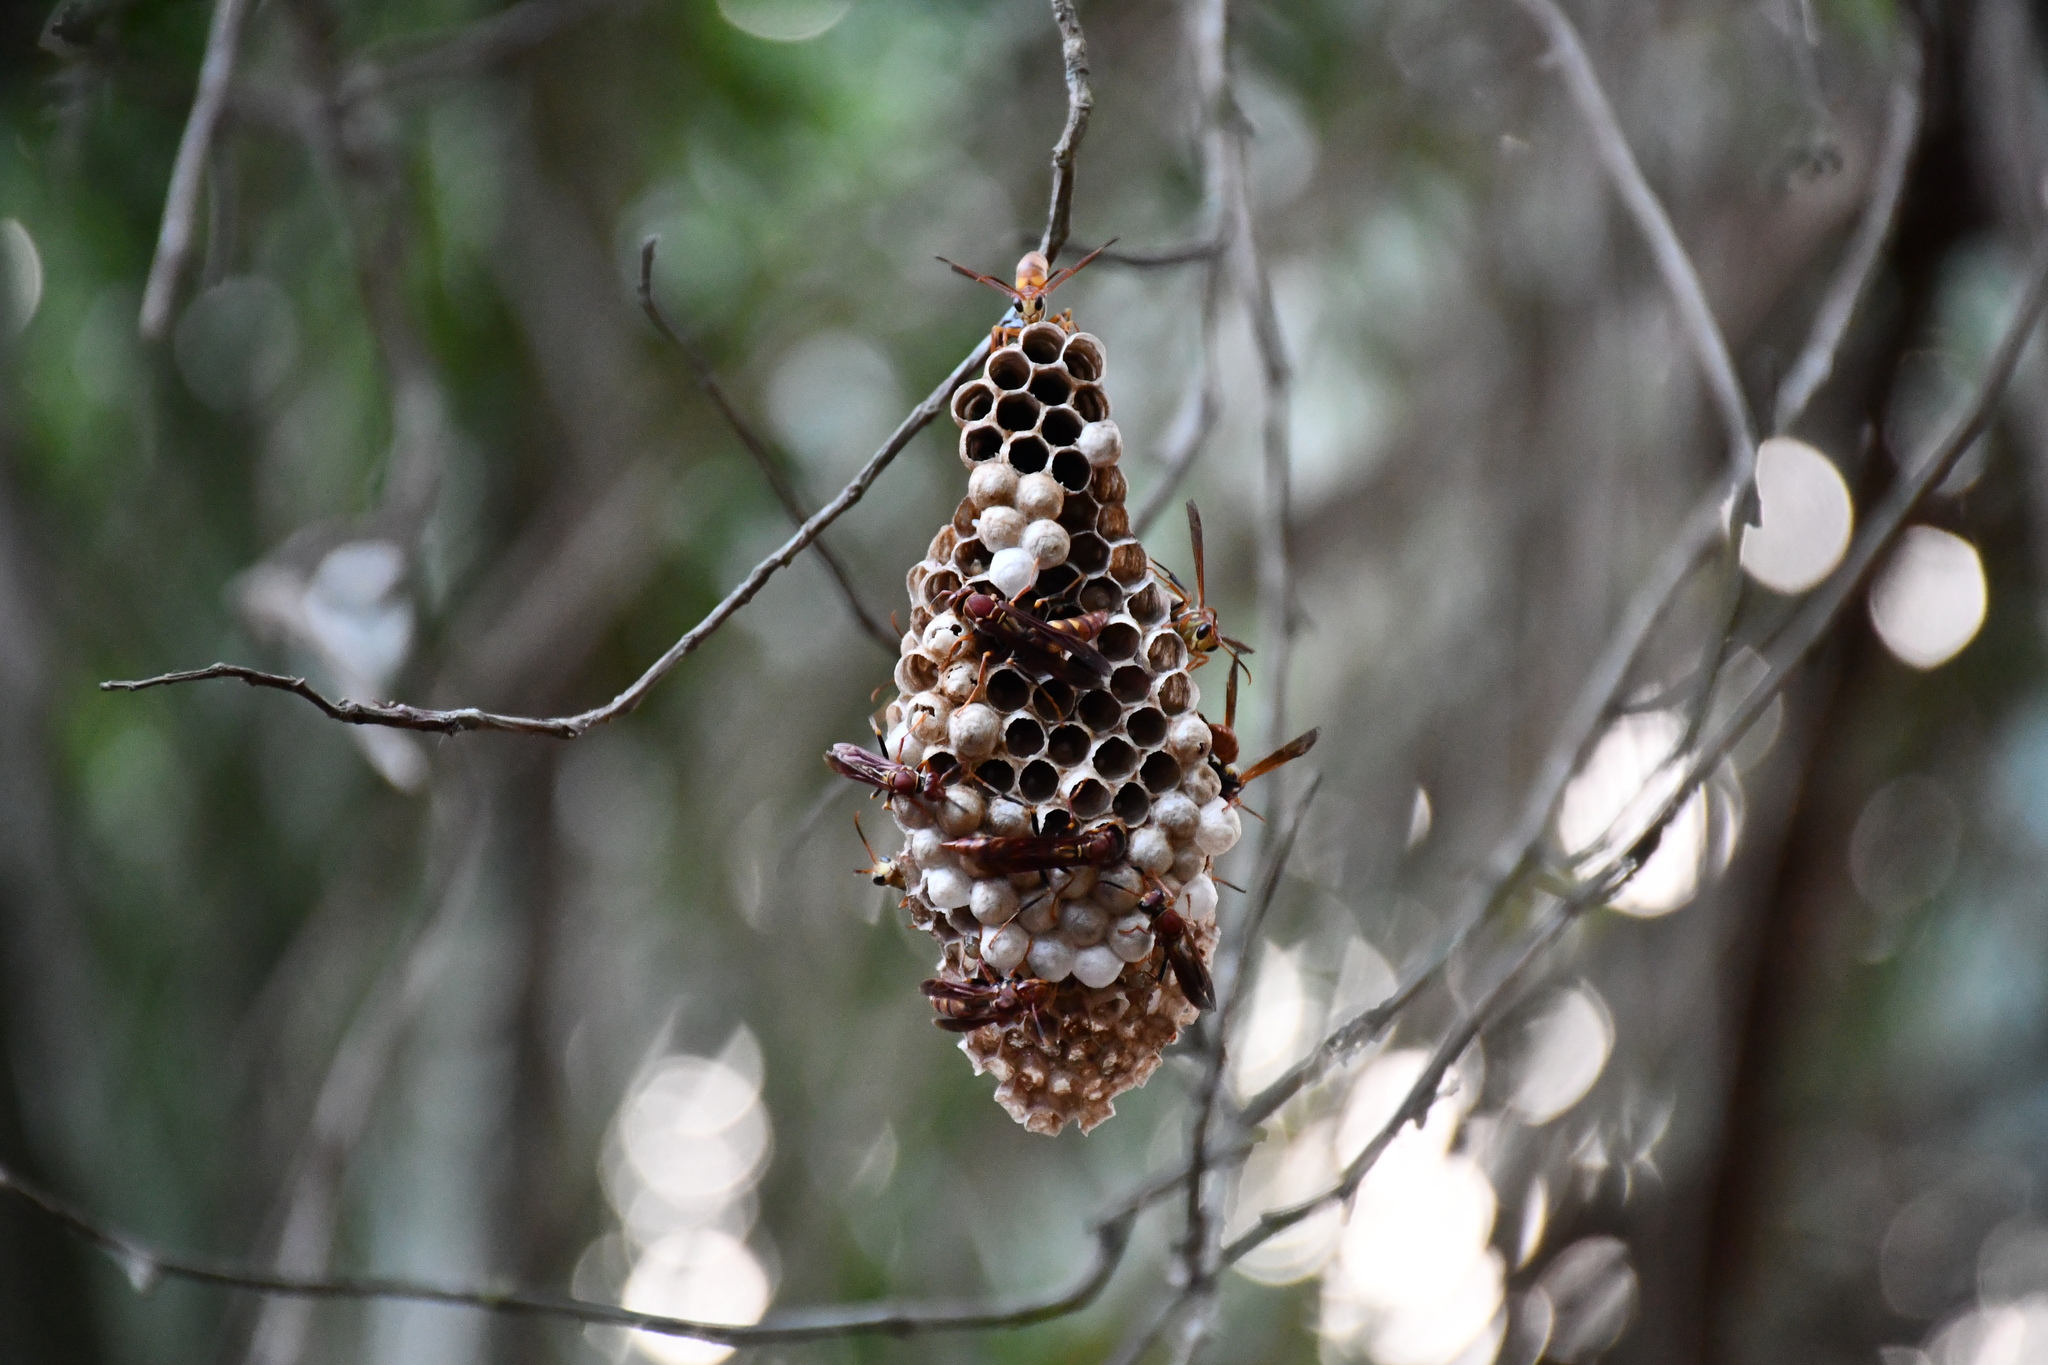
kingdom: Animalia
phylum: Arthropoda
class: Insecta
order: Hymenoptera
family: Eumenidae
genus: Polistes
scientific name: Polistes versicolor
